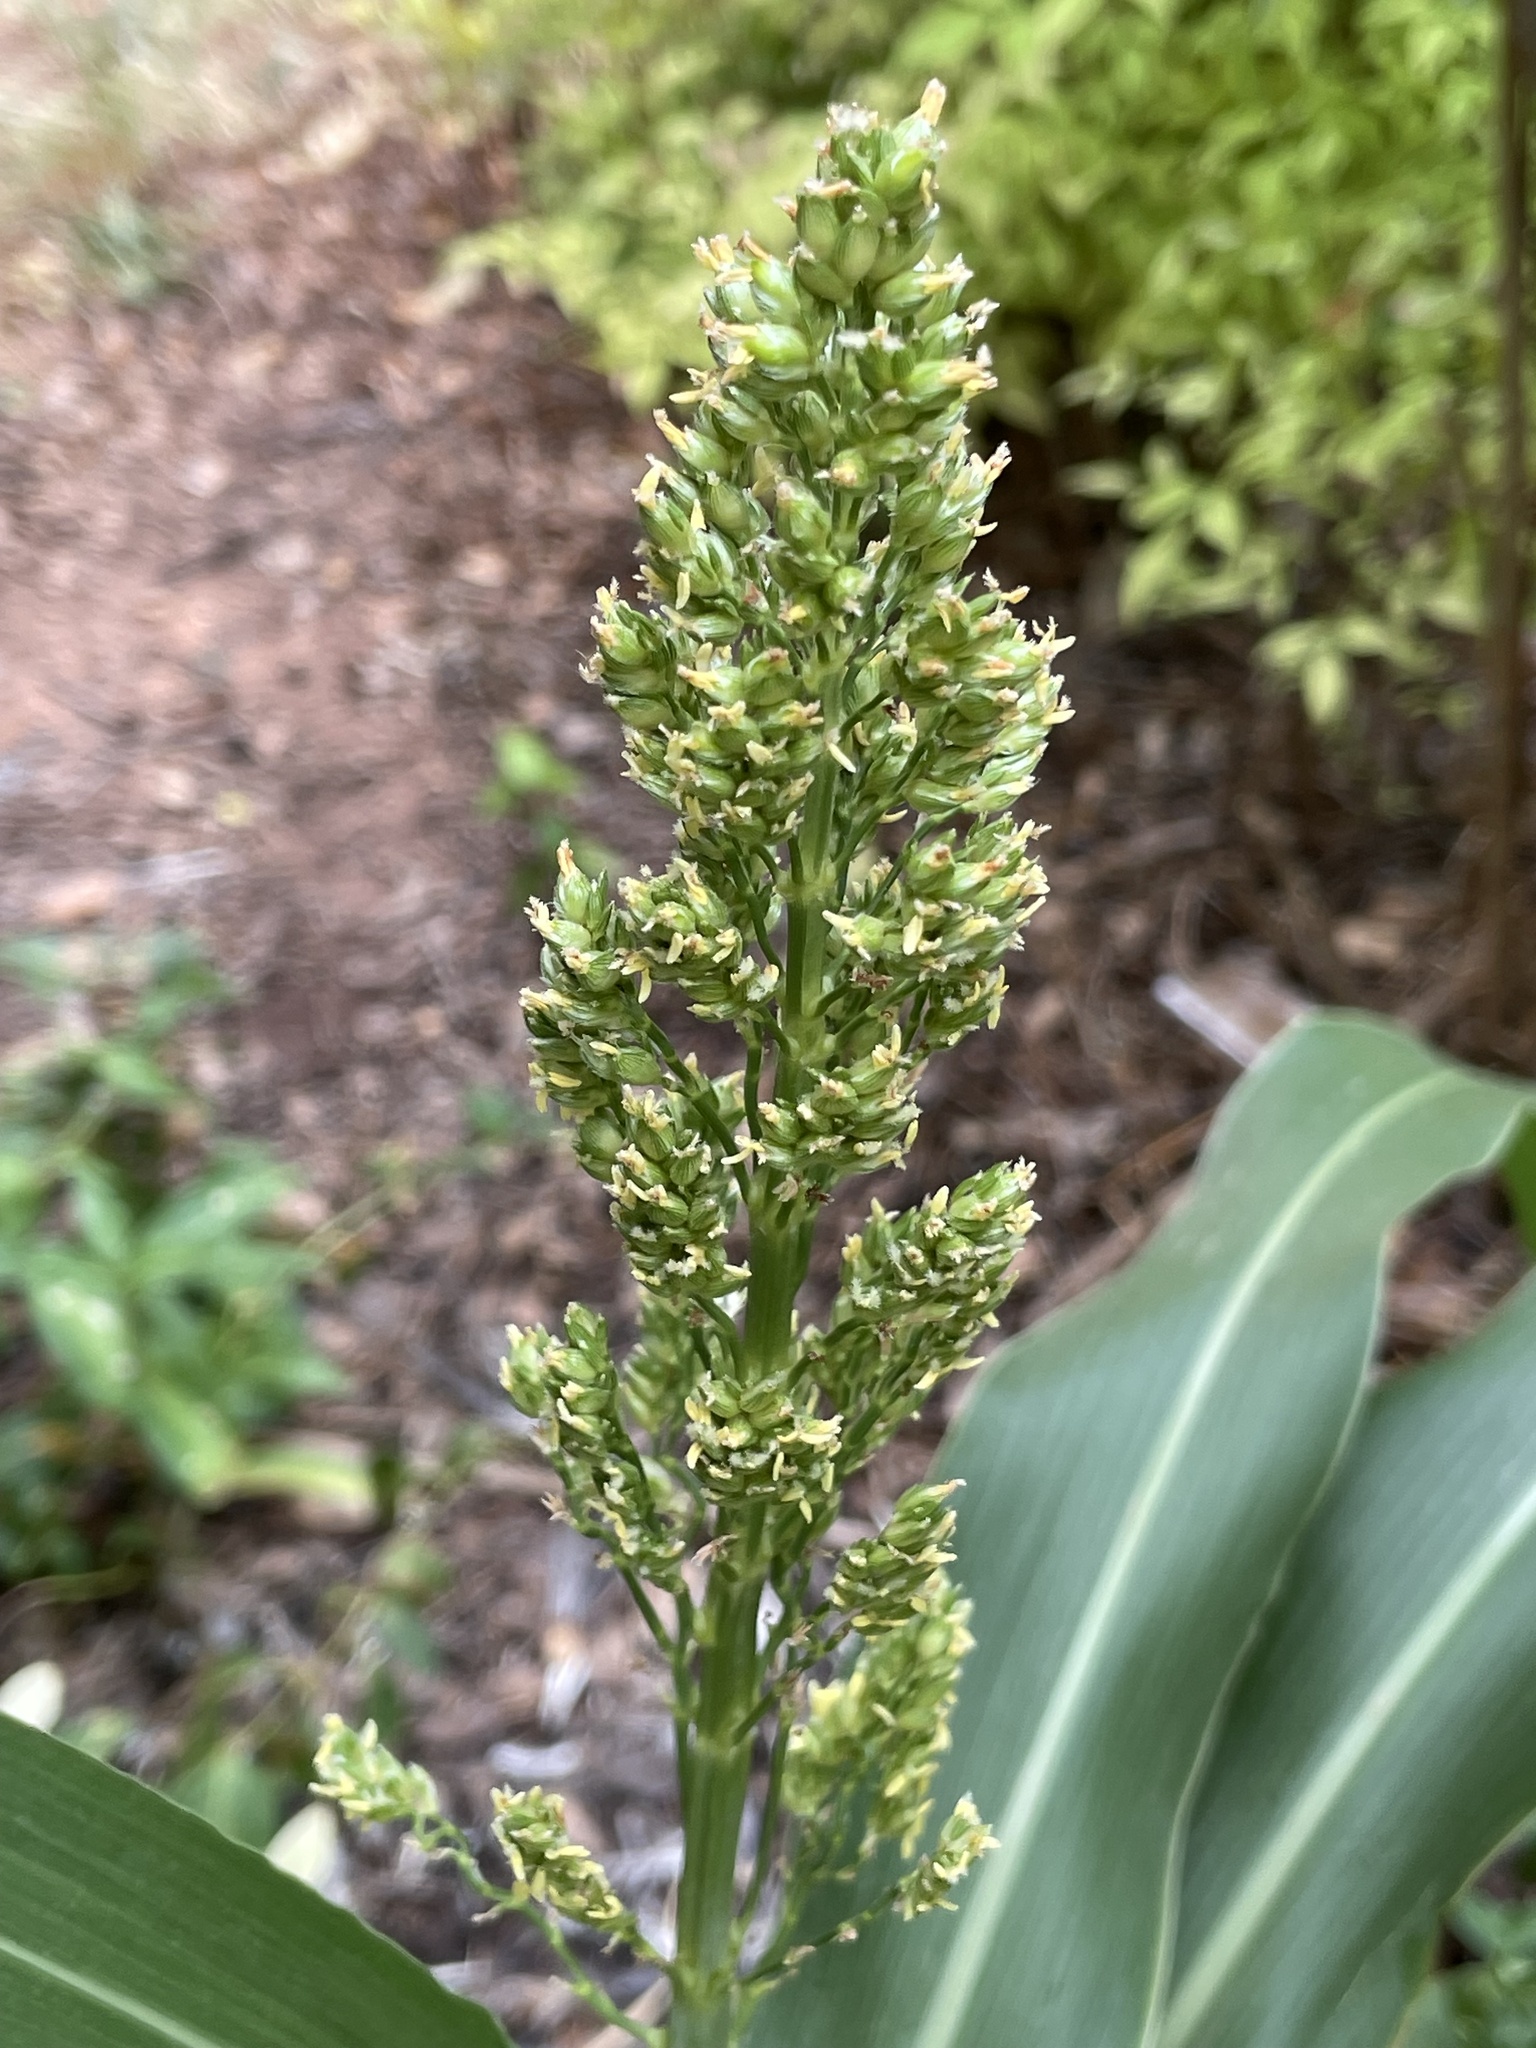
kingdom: Plantae
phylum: Tracheophyta
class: Liliopsida
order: Poales
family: Poaceae
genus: Sorghum
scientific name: Sorghum bicolor
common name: Sorghum
